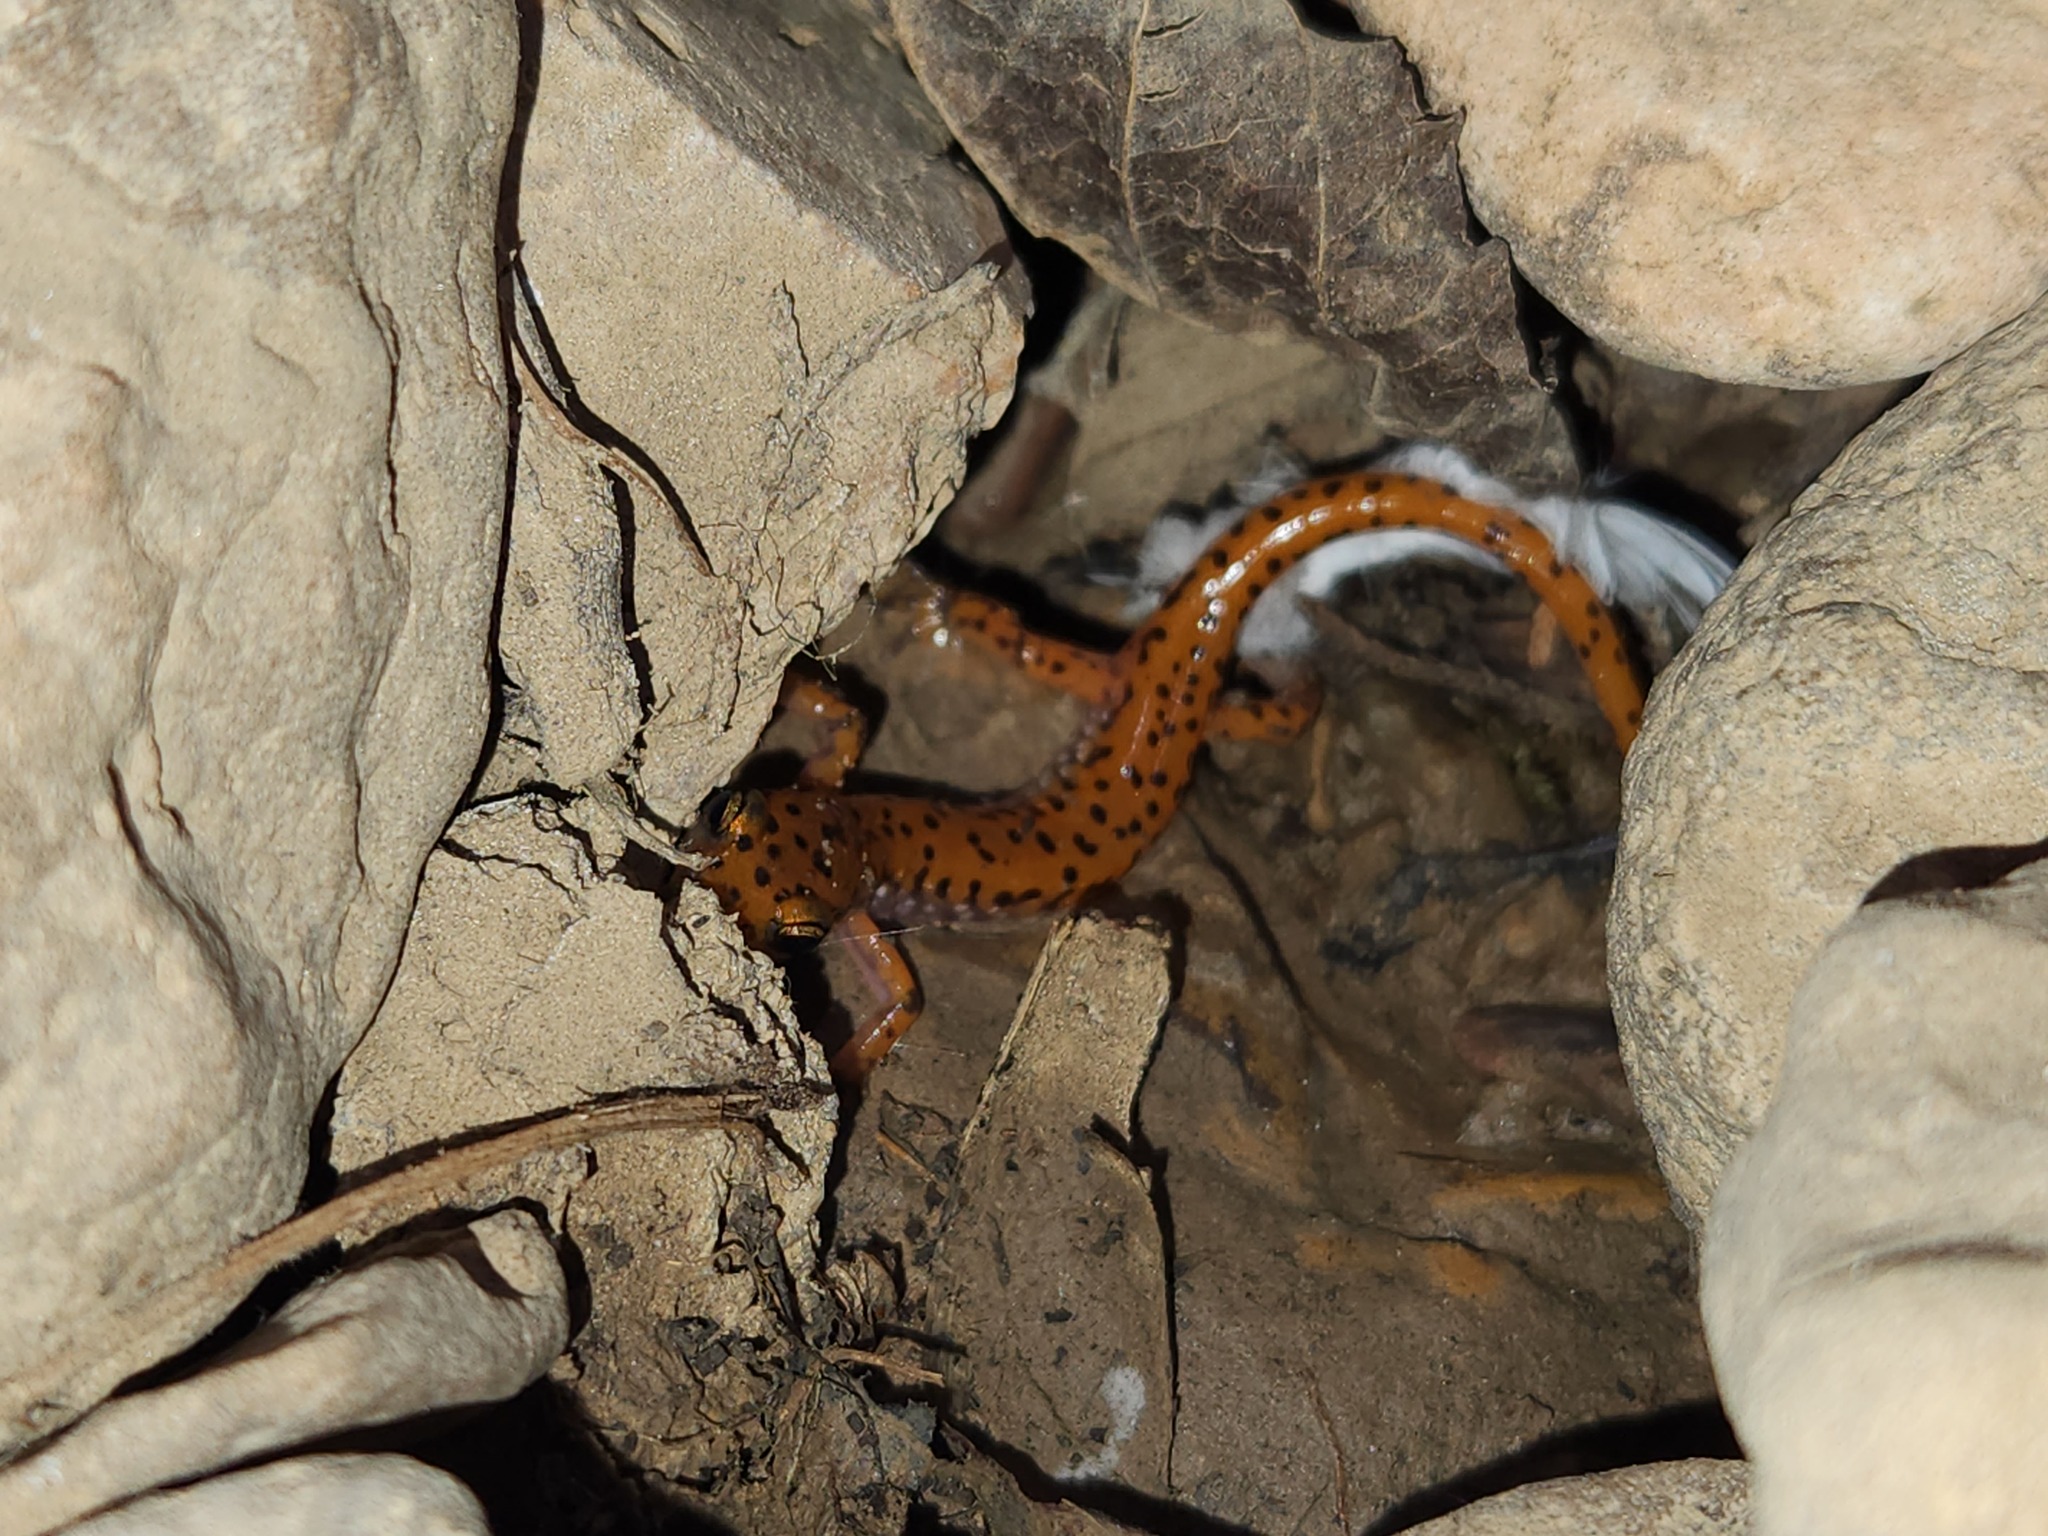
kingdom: Animalia
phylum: Chordata
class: Amphibia
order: Caudata
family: Plethodontidae
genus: Eurycea
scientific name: Eurycea lucifuga
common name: Cave salamander
